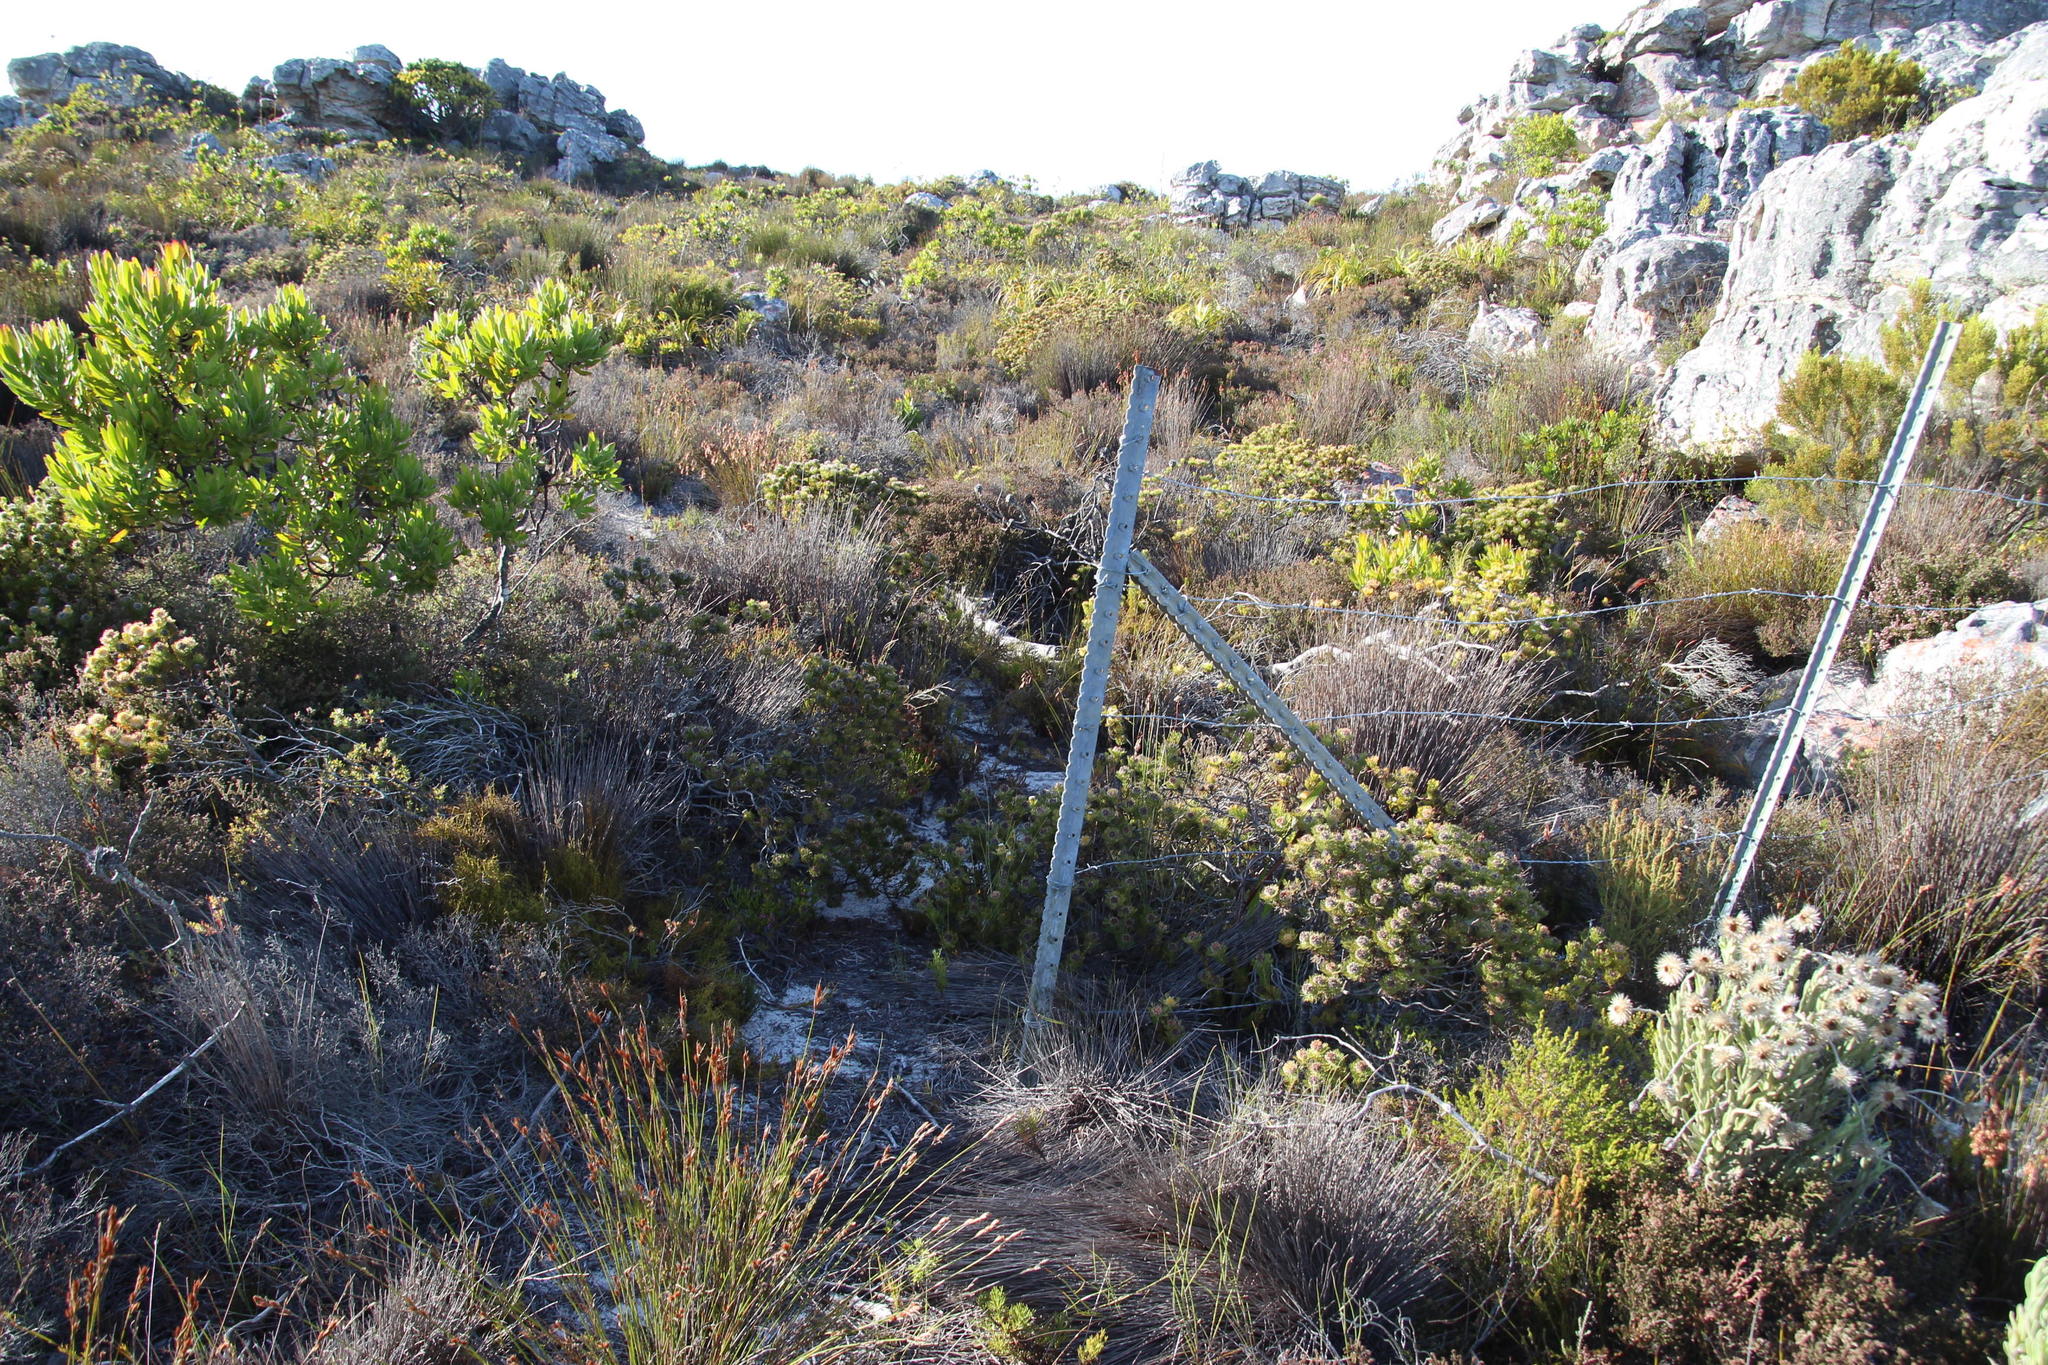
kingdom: Plantae
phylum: Tracheophyta
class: Magnoliopsida
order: Proteales
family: Proteaceae
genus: Serruria
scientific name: Serruria villosa
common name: Golden spiderhead
